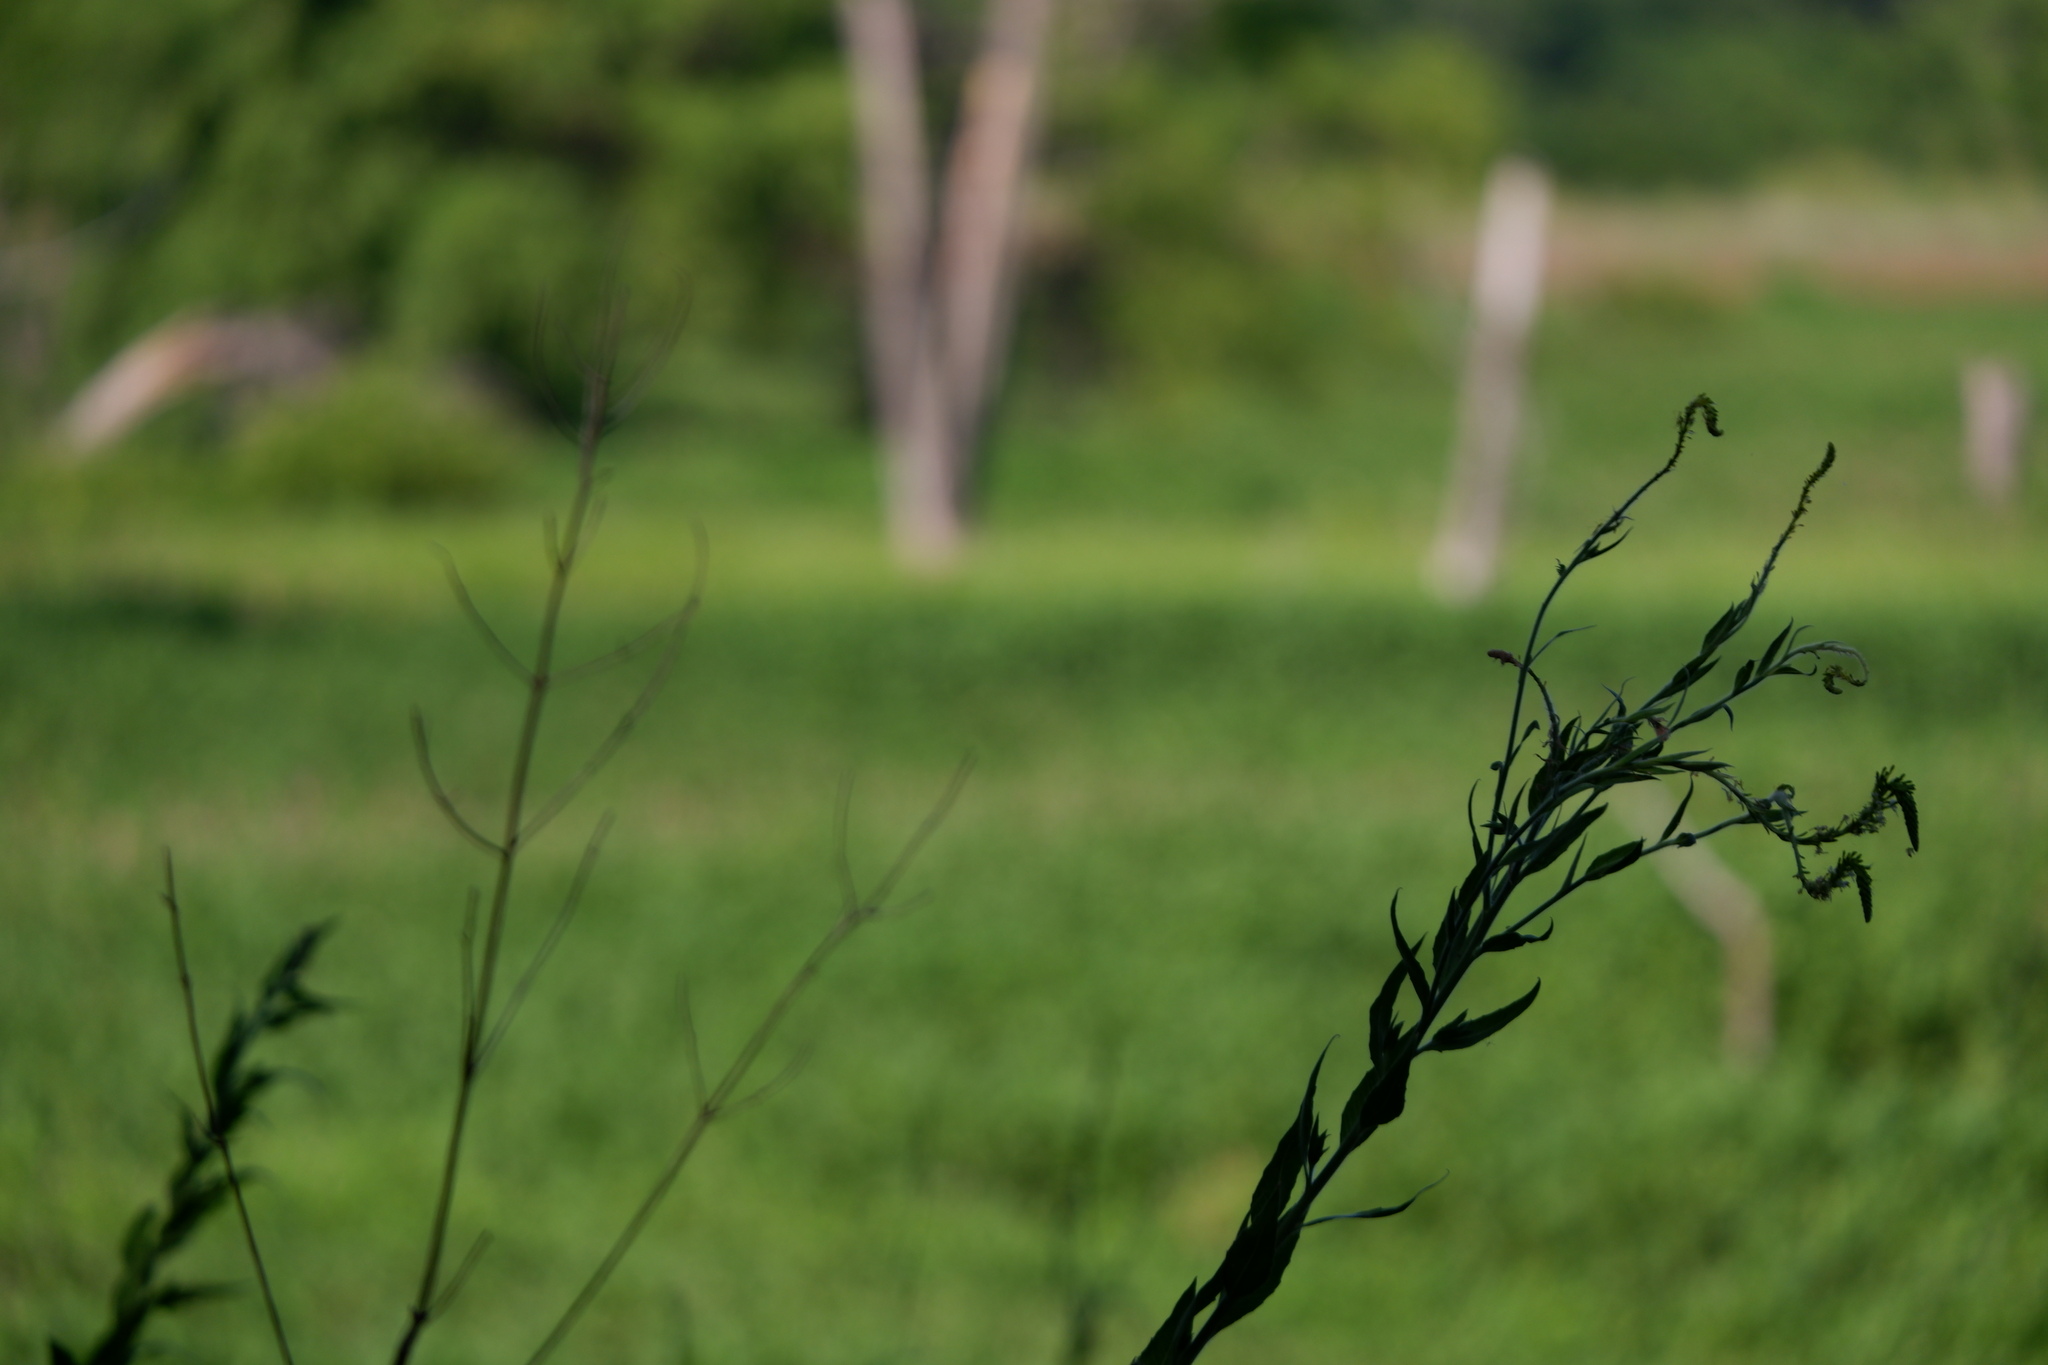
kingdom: Plantae
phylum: Tracheophyta
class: Magnoliopsida
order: Myrtales
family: Onagraceae
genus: Oenothera
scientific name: Oenothera curtiflora
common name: Velvetweed
